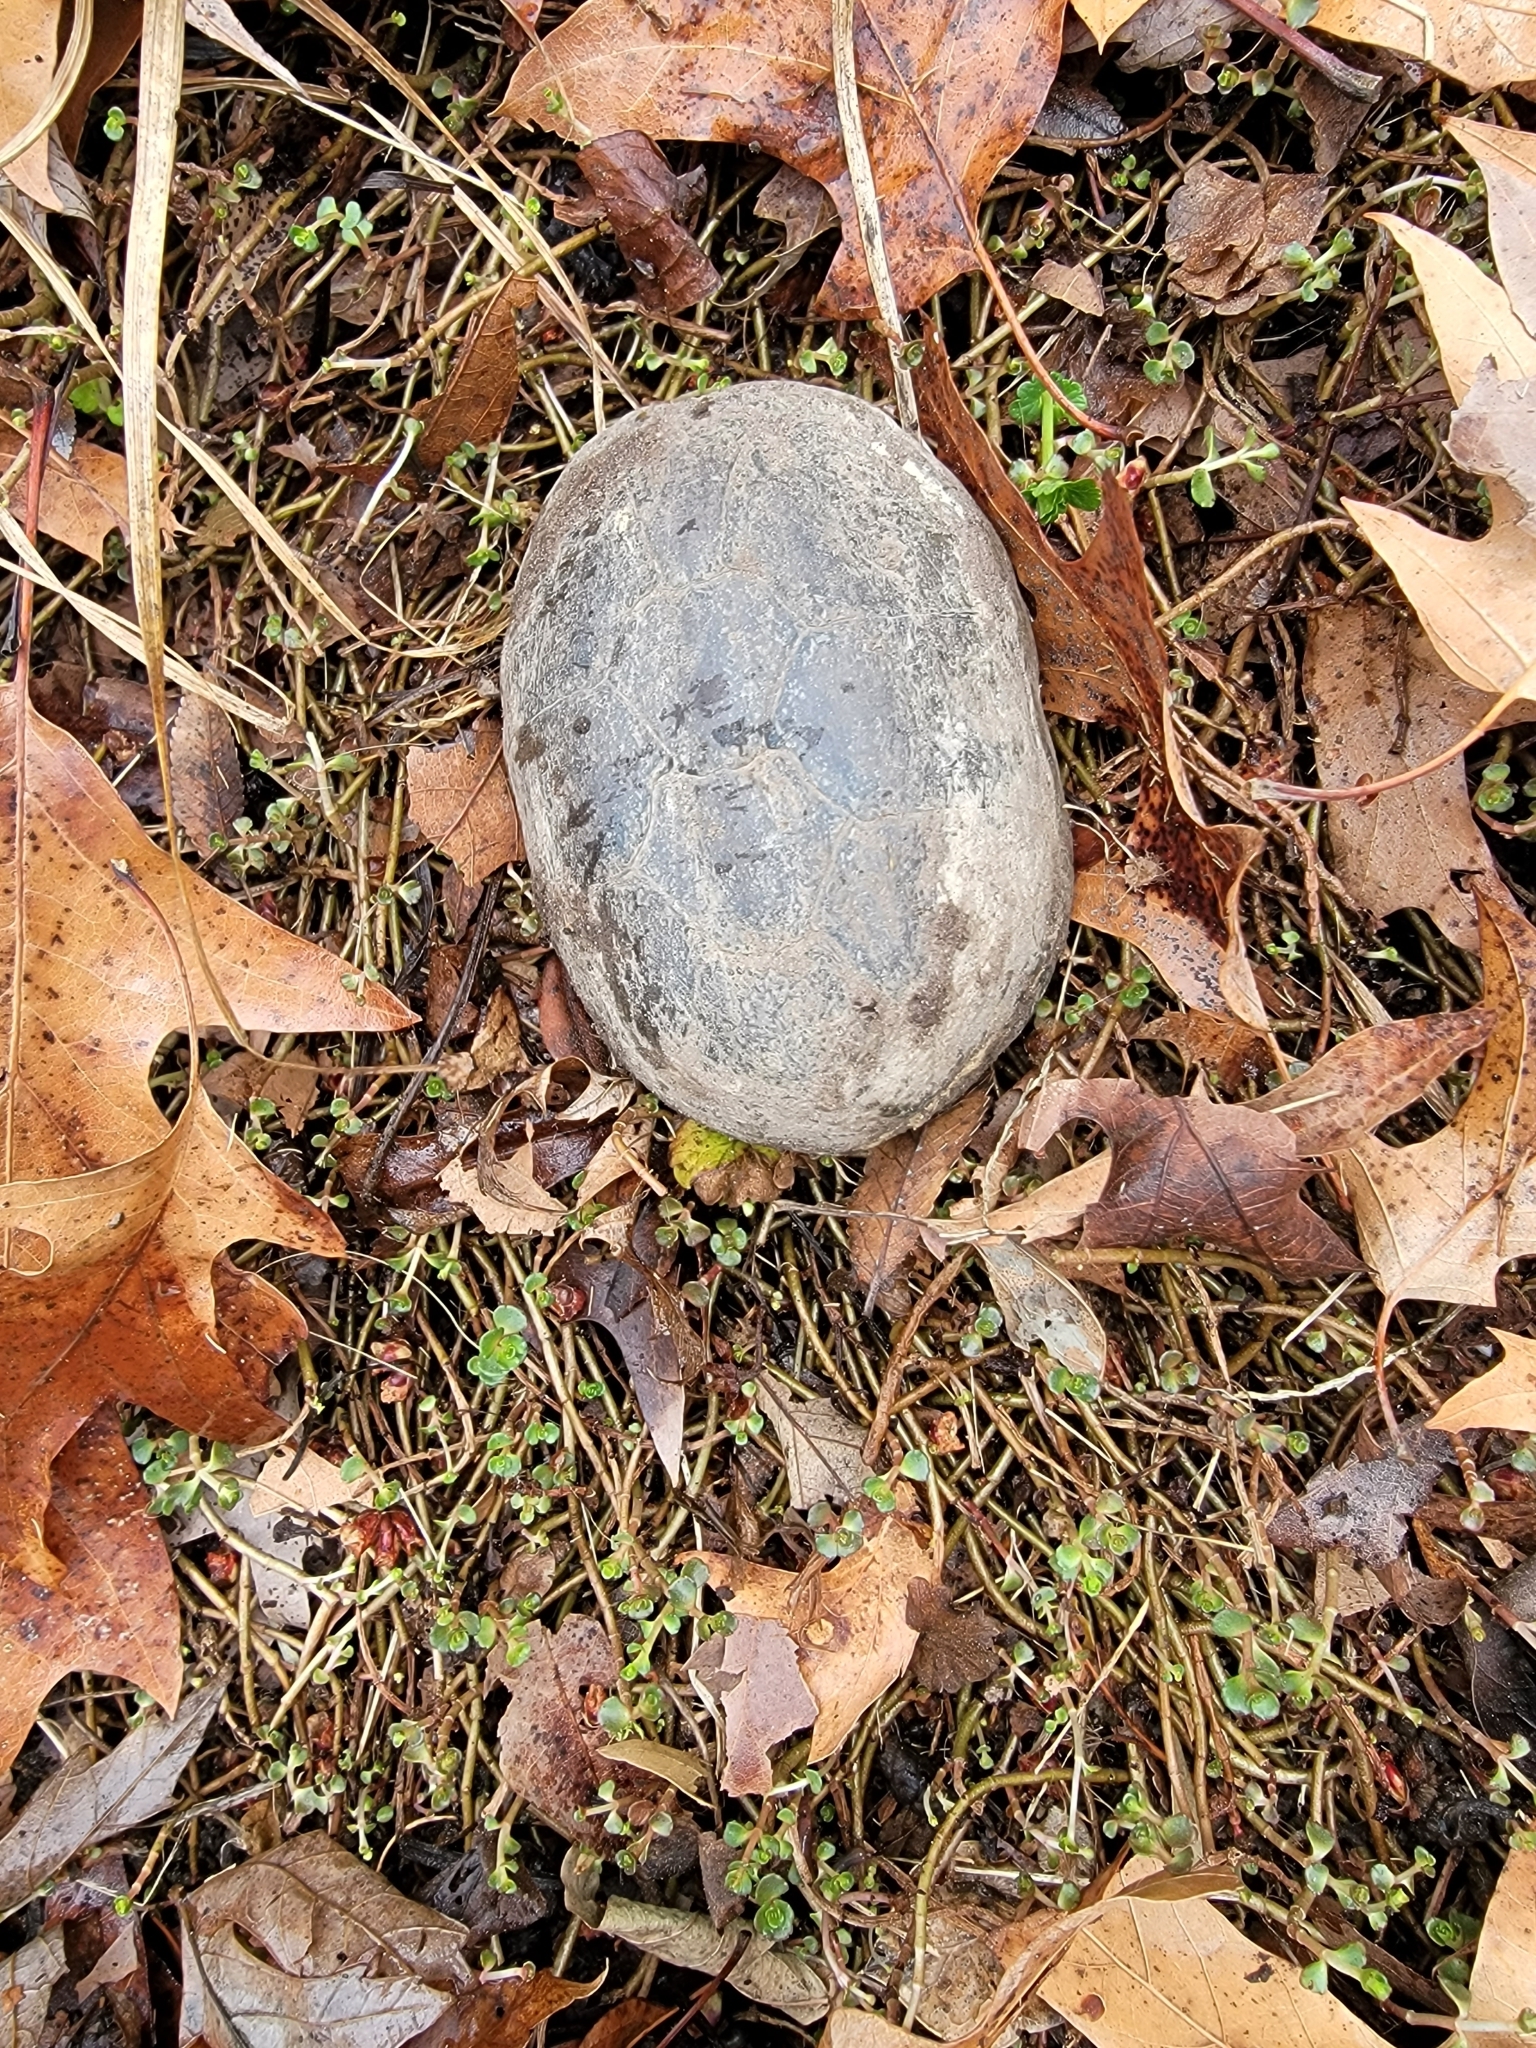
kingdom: Animalia
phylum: Chordata
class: Testudines
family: Kinosternidae
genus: Kinosternon
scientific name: Kinosternon subrubrum
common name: Eastern mud turtle
